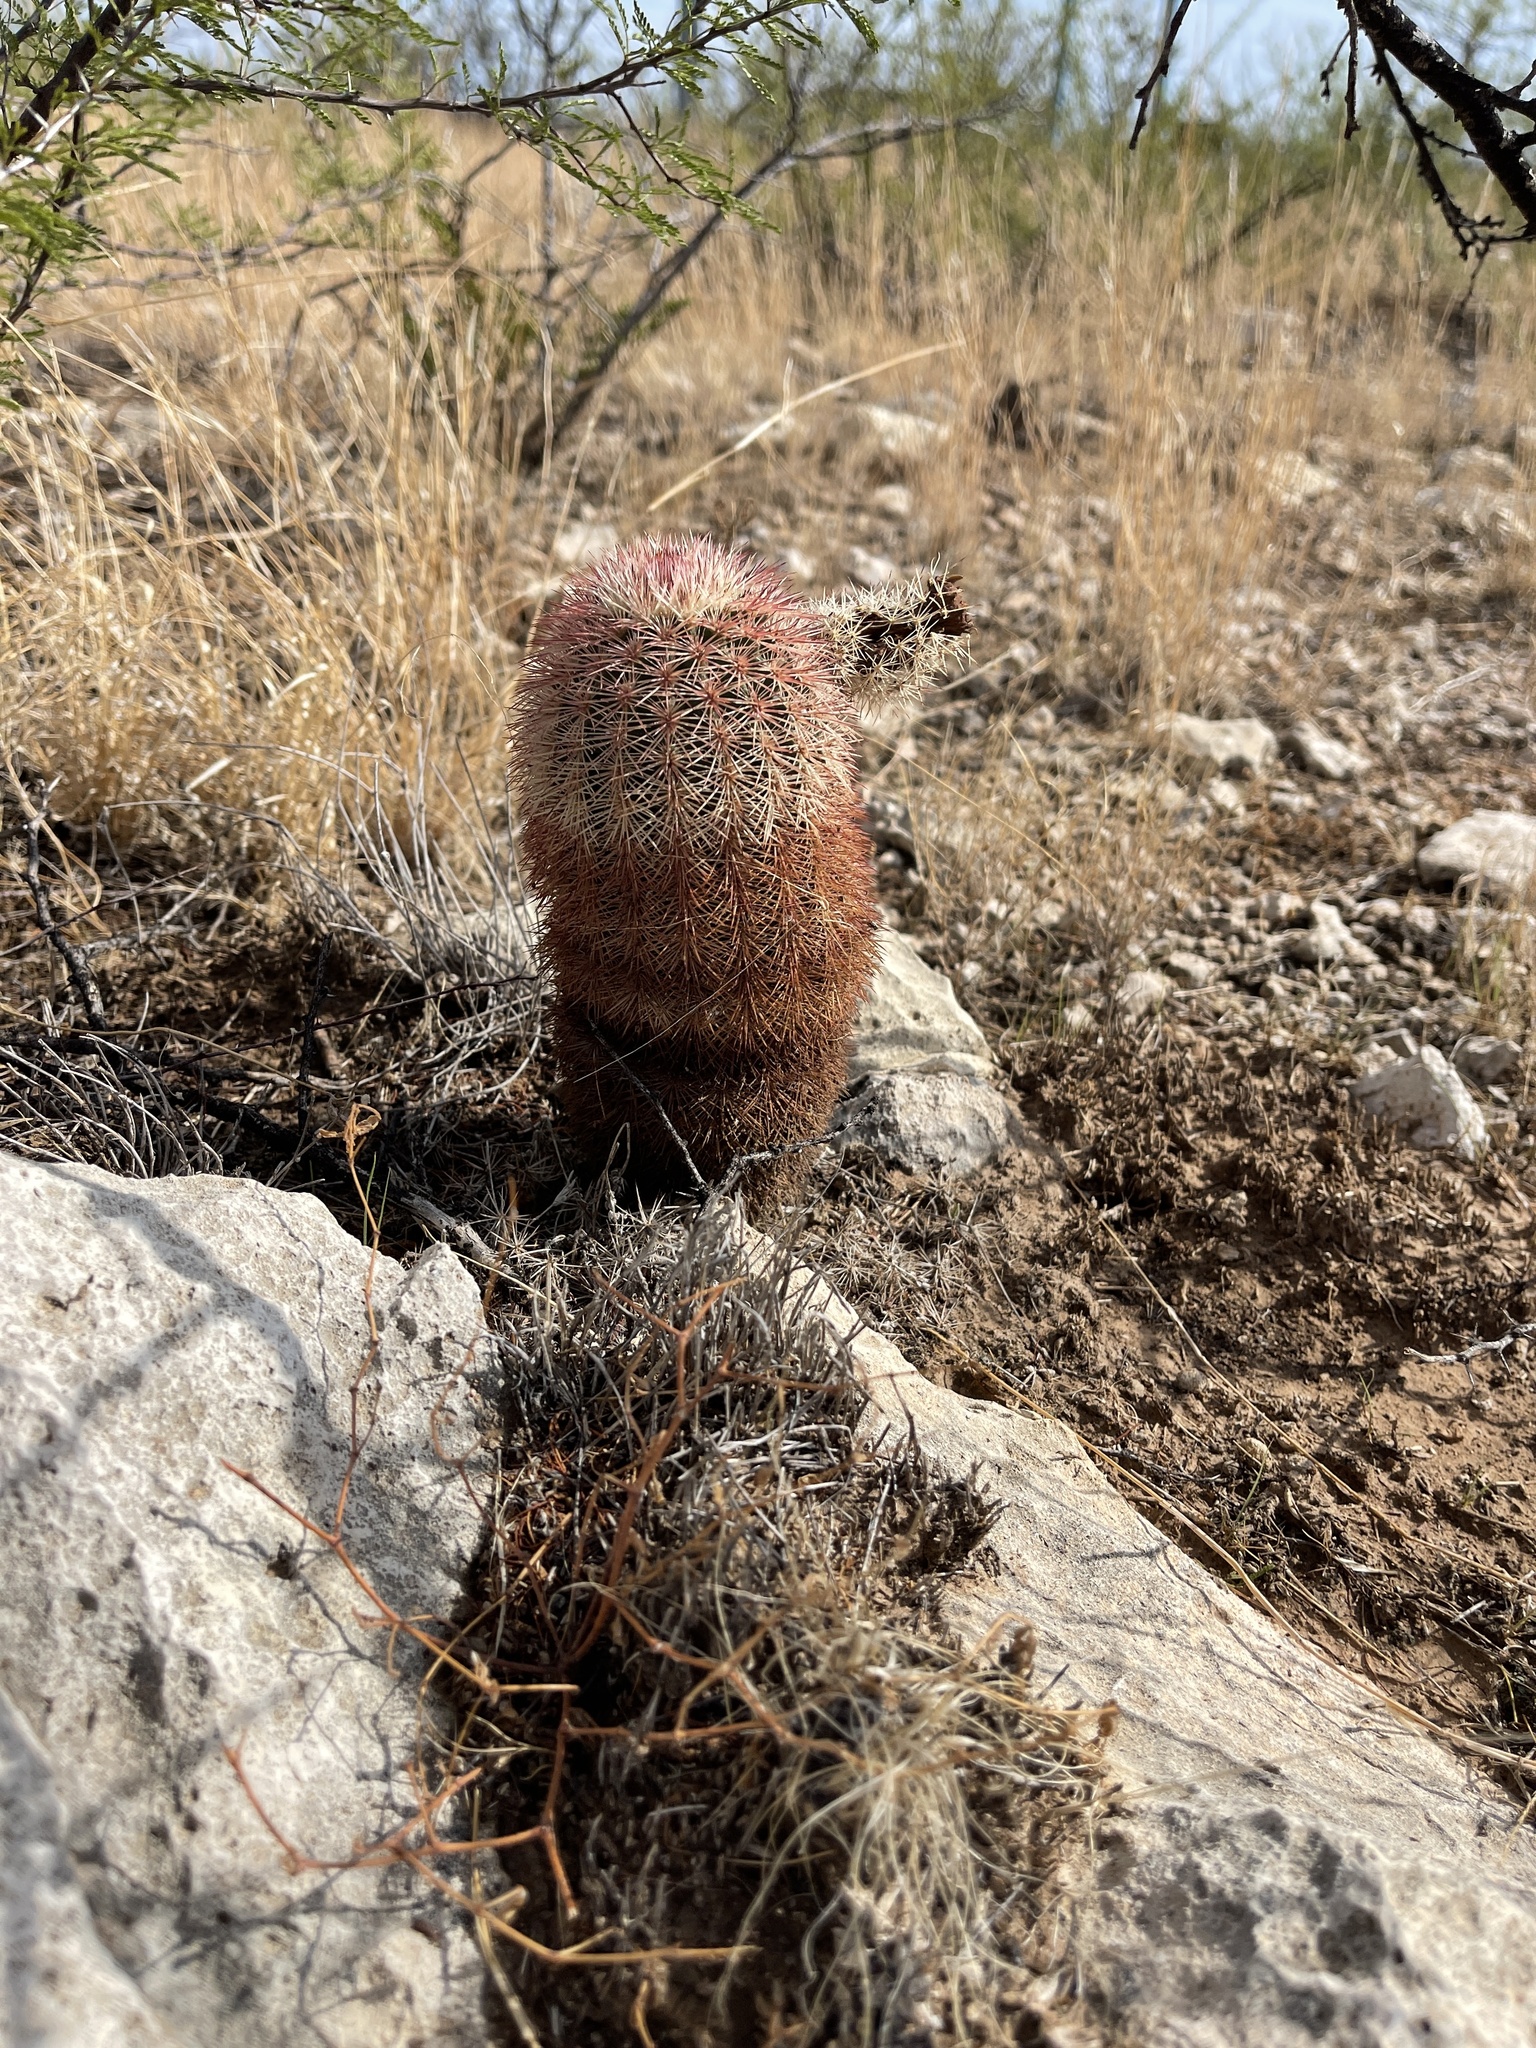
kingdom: Plantae
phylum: Tracheophyta
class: Magnoliopsida
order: Caryophyllales
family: Cactaceae
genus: Echinocereus
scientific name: Echinocereus dasyacanthus
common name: Spiny hedgehog cactus
